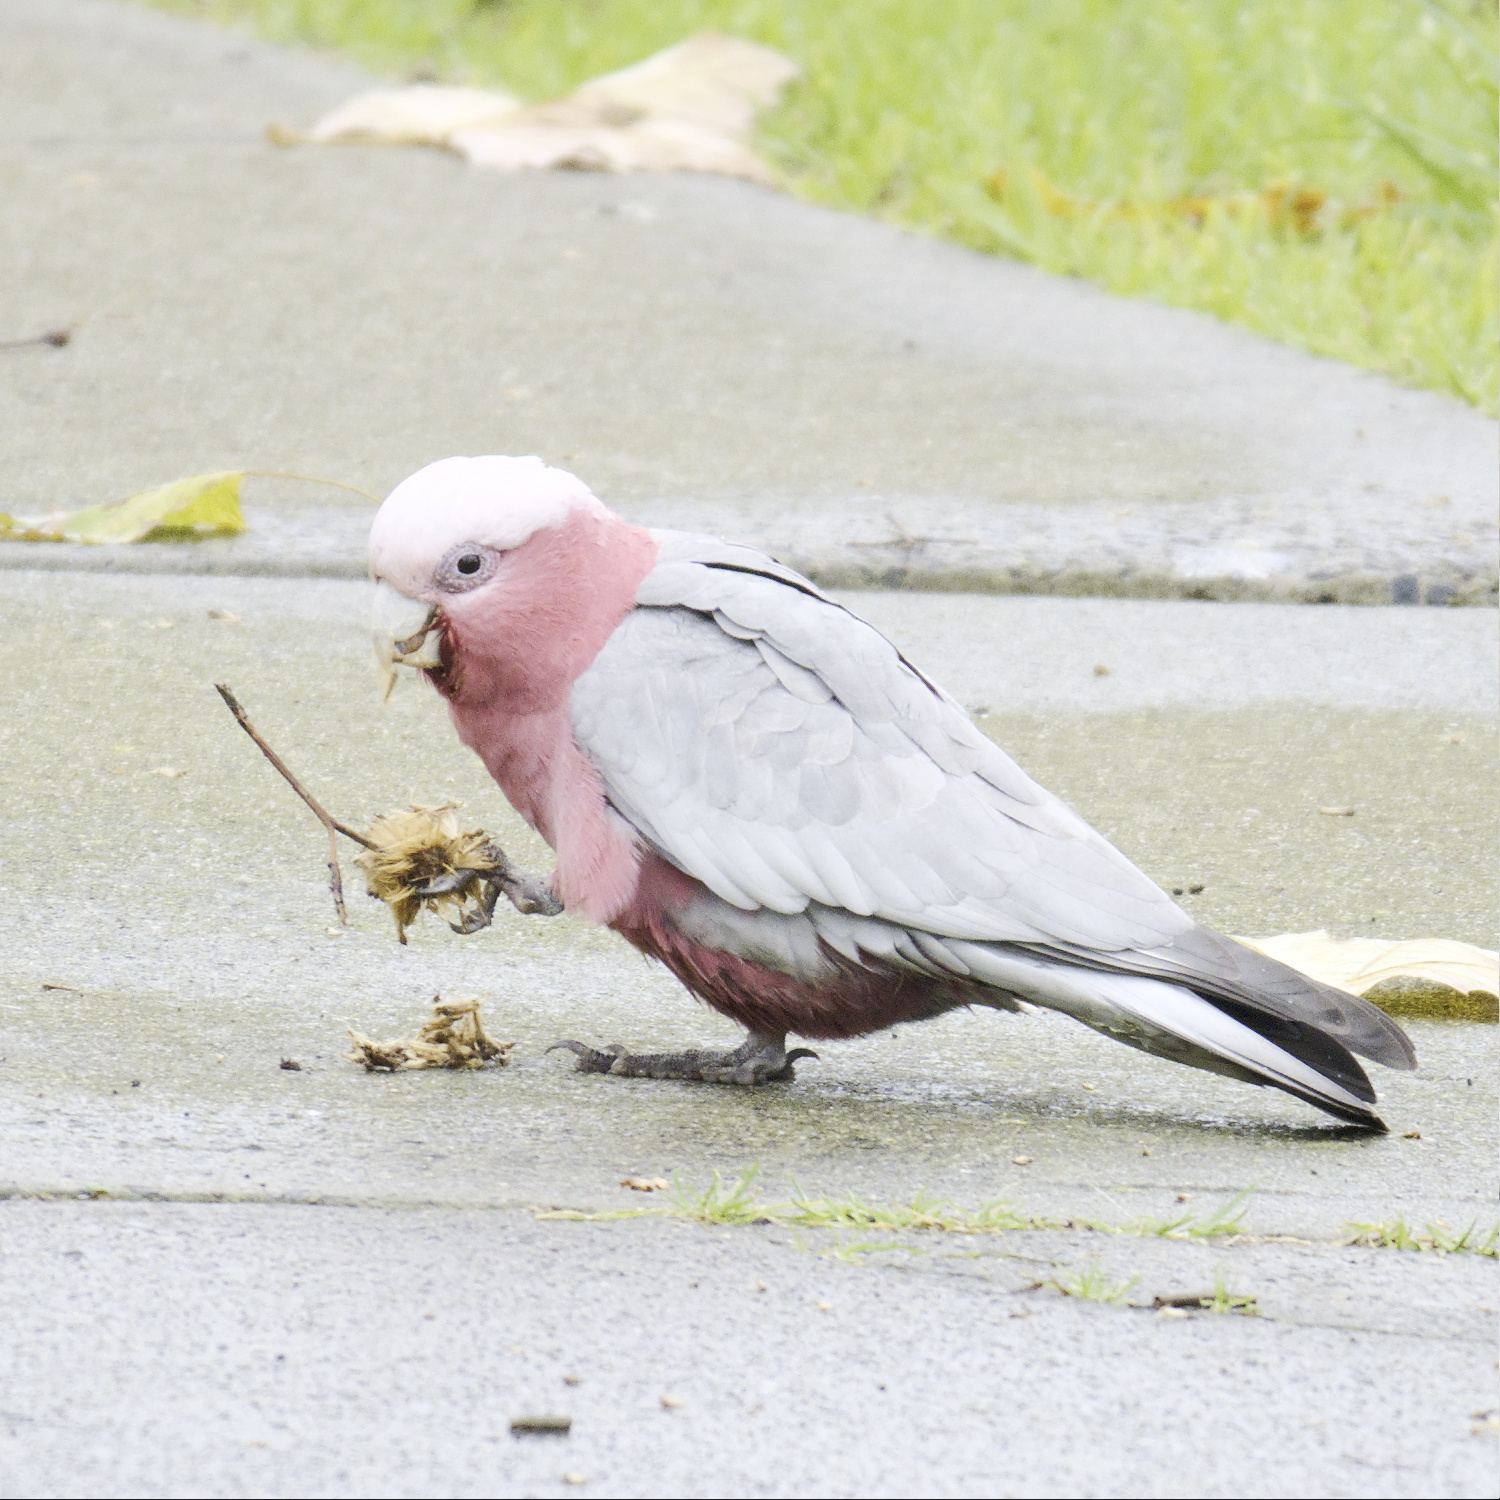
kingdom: Animalia
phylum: Chordata
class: Aves
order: Psittaciformes
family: Psittacidae
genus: Eolophus
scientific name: Eolophus roseicapilla
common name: Galah
